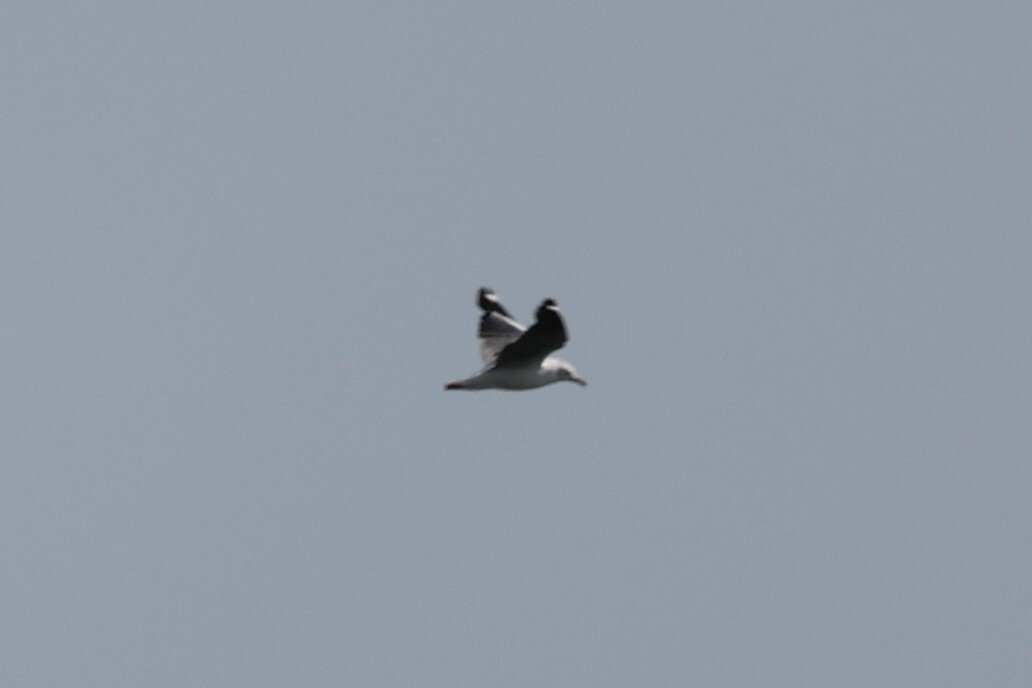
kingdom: Animalia
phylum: Chordata
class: Aves
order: Charadriiformes
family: Laridae
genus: Chroicocephalus
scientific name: Chroicocephalus cirrocephalus
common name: Grey-headed gull
